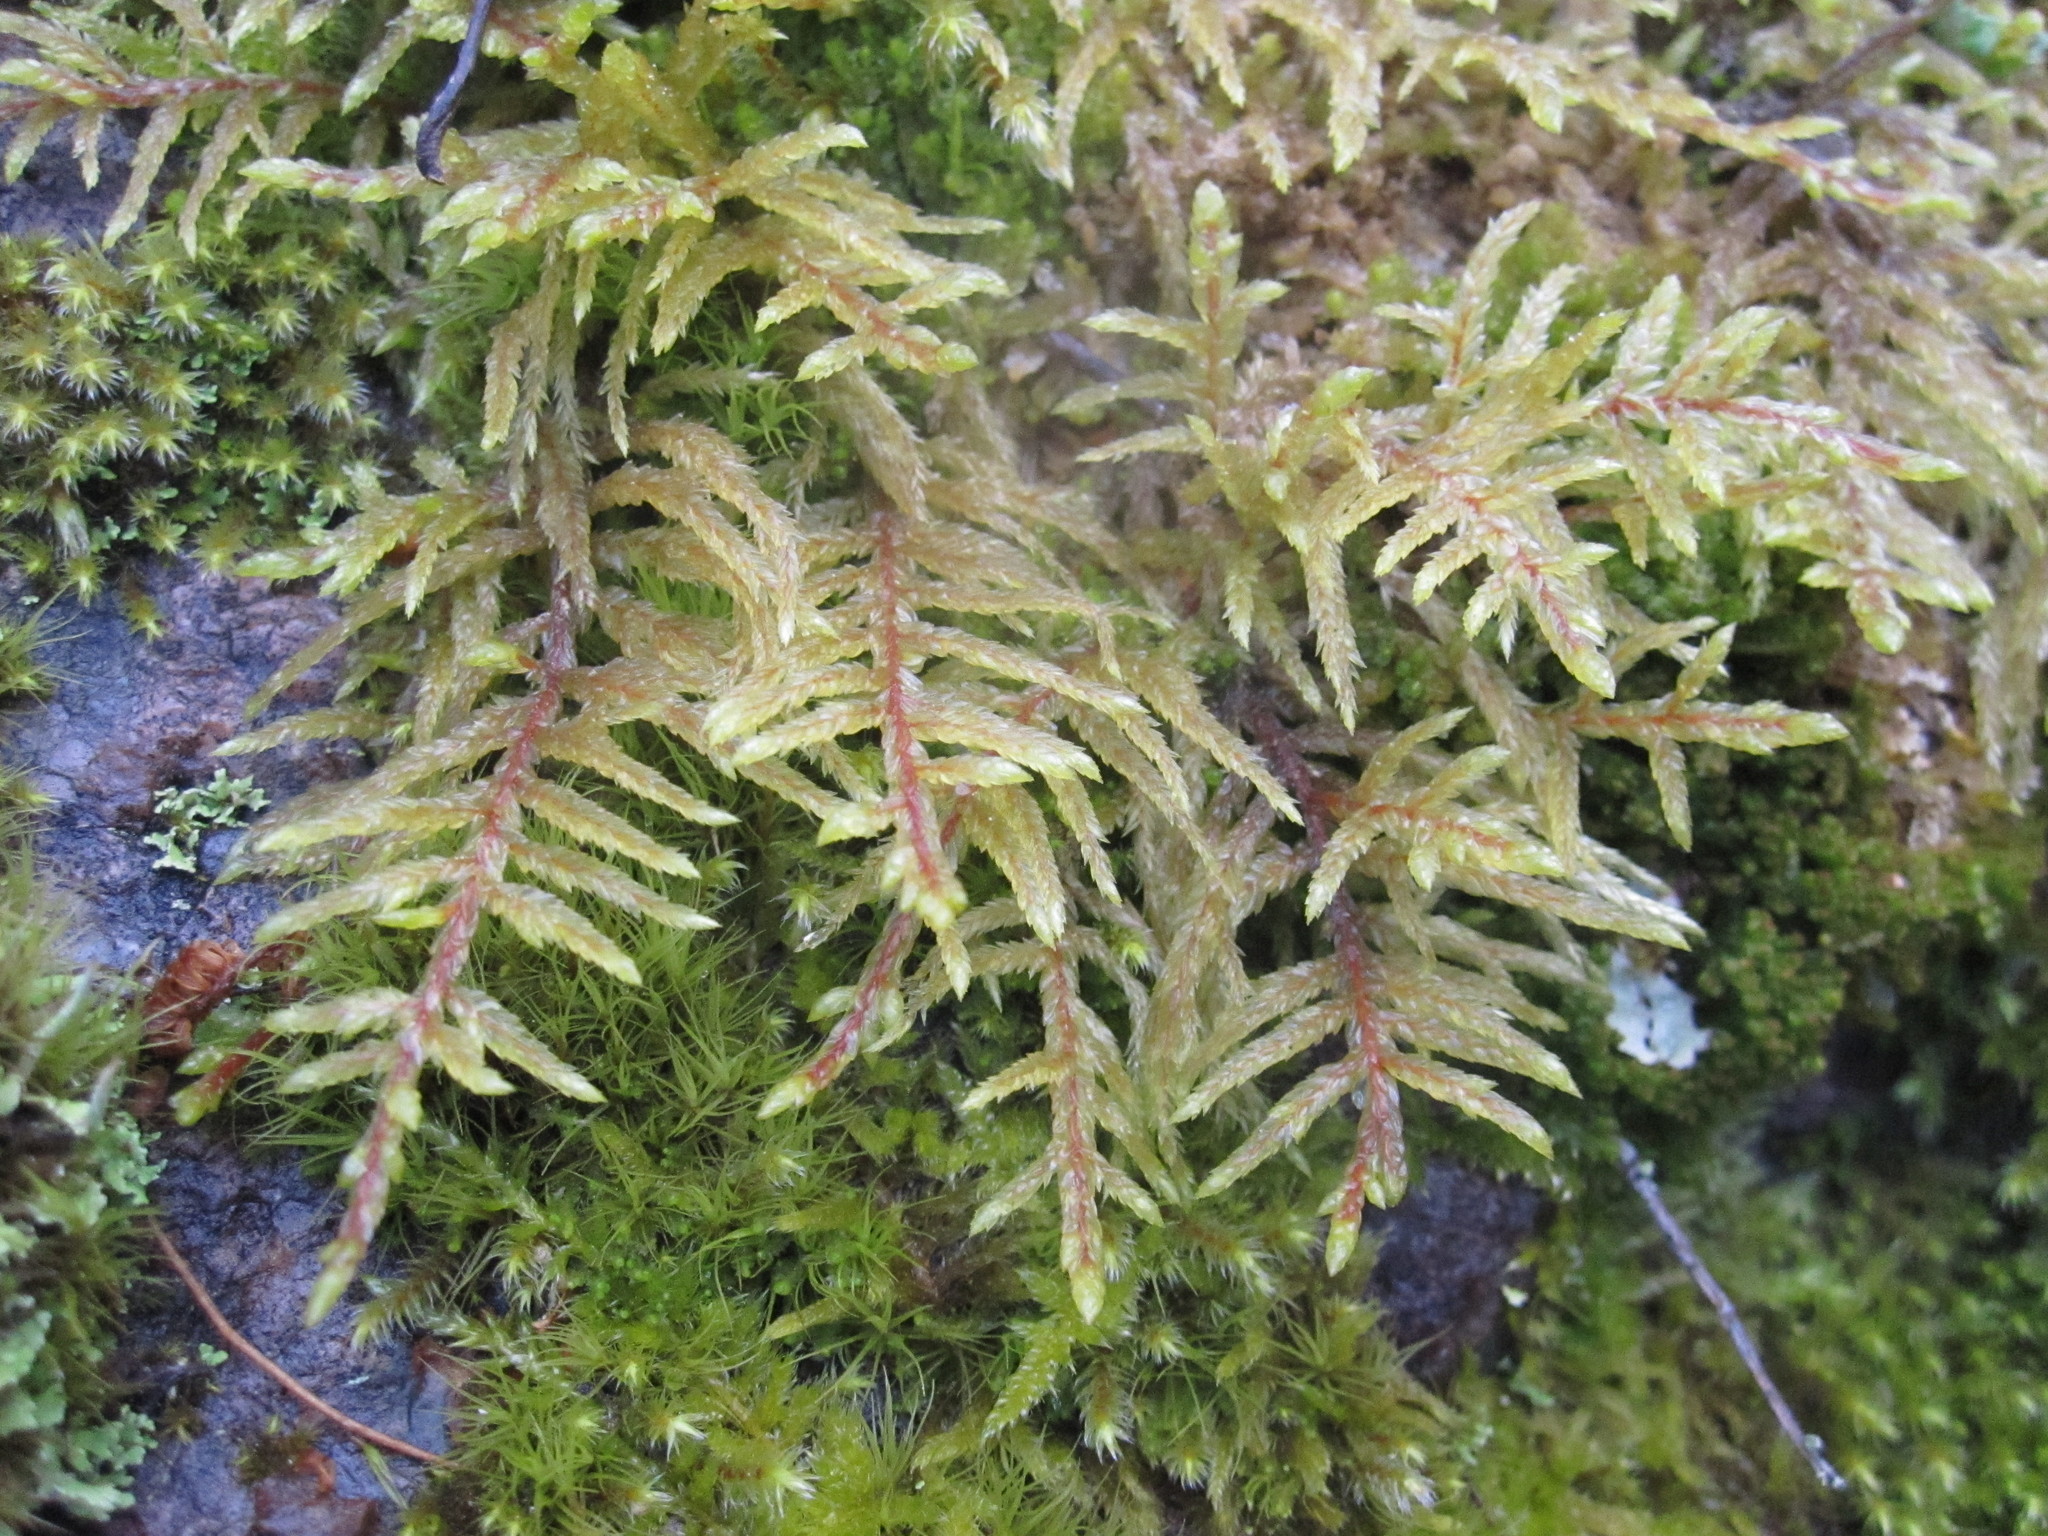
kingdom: Plantae
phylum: Bryophyta
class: Bryopsida
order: Hypnales
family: Hylocomiaceae
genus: Pleurozium
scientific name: Pleurozium schreberi
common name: Red-stemmed feather moss
